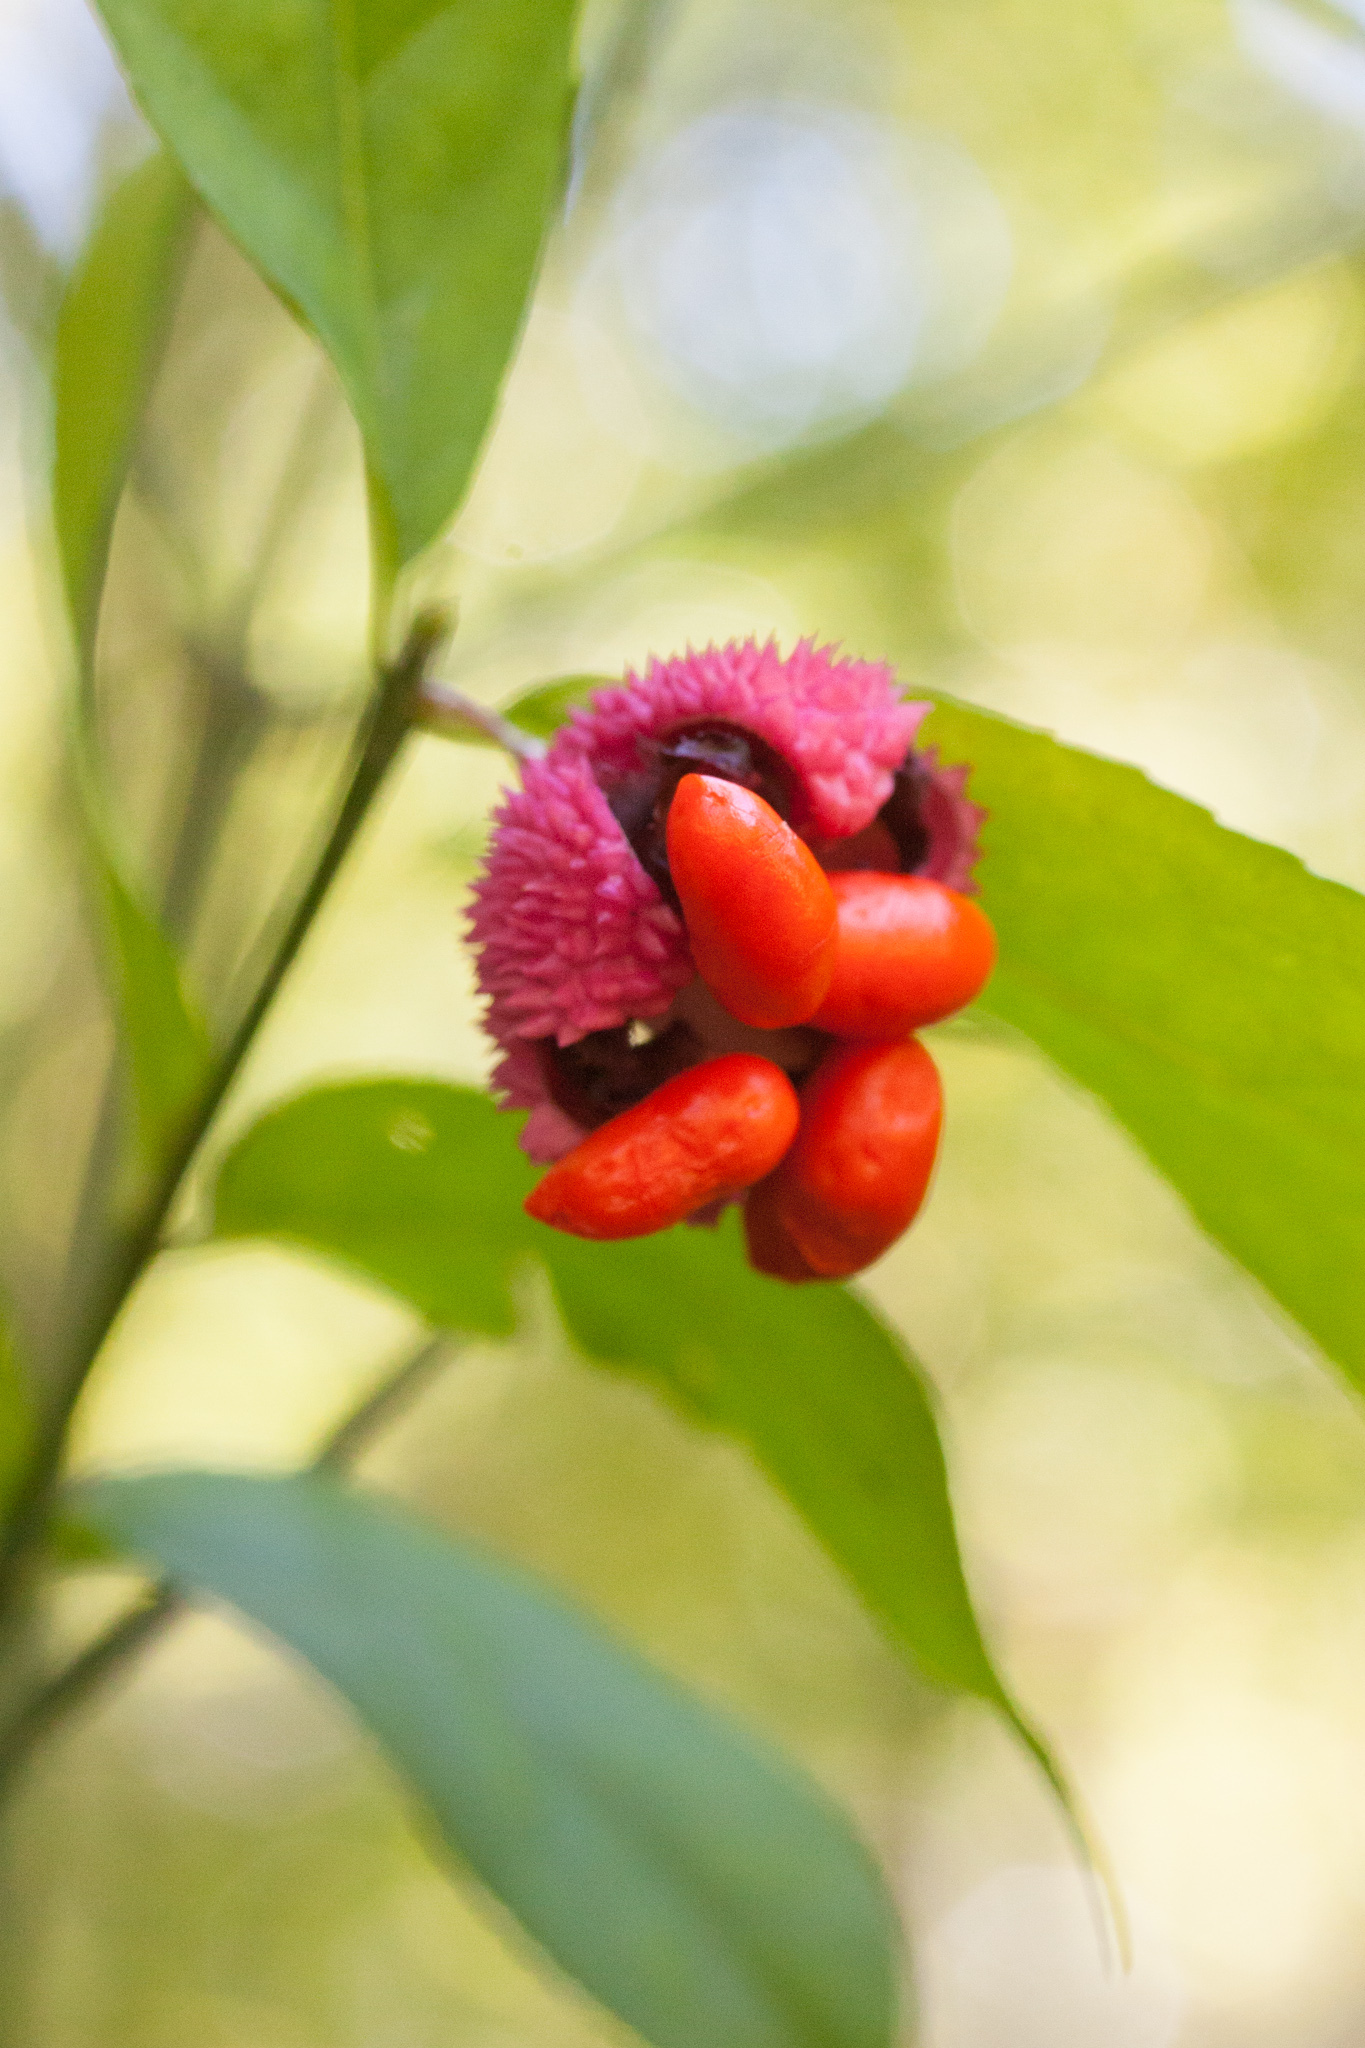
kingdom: Plantae
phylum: Tracheophyta
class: Magnoliopsida
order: Celastrales
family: Celastraceae
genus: Euonymus
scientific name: Euonymus americanus
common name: Bursting-heart
